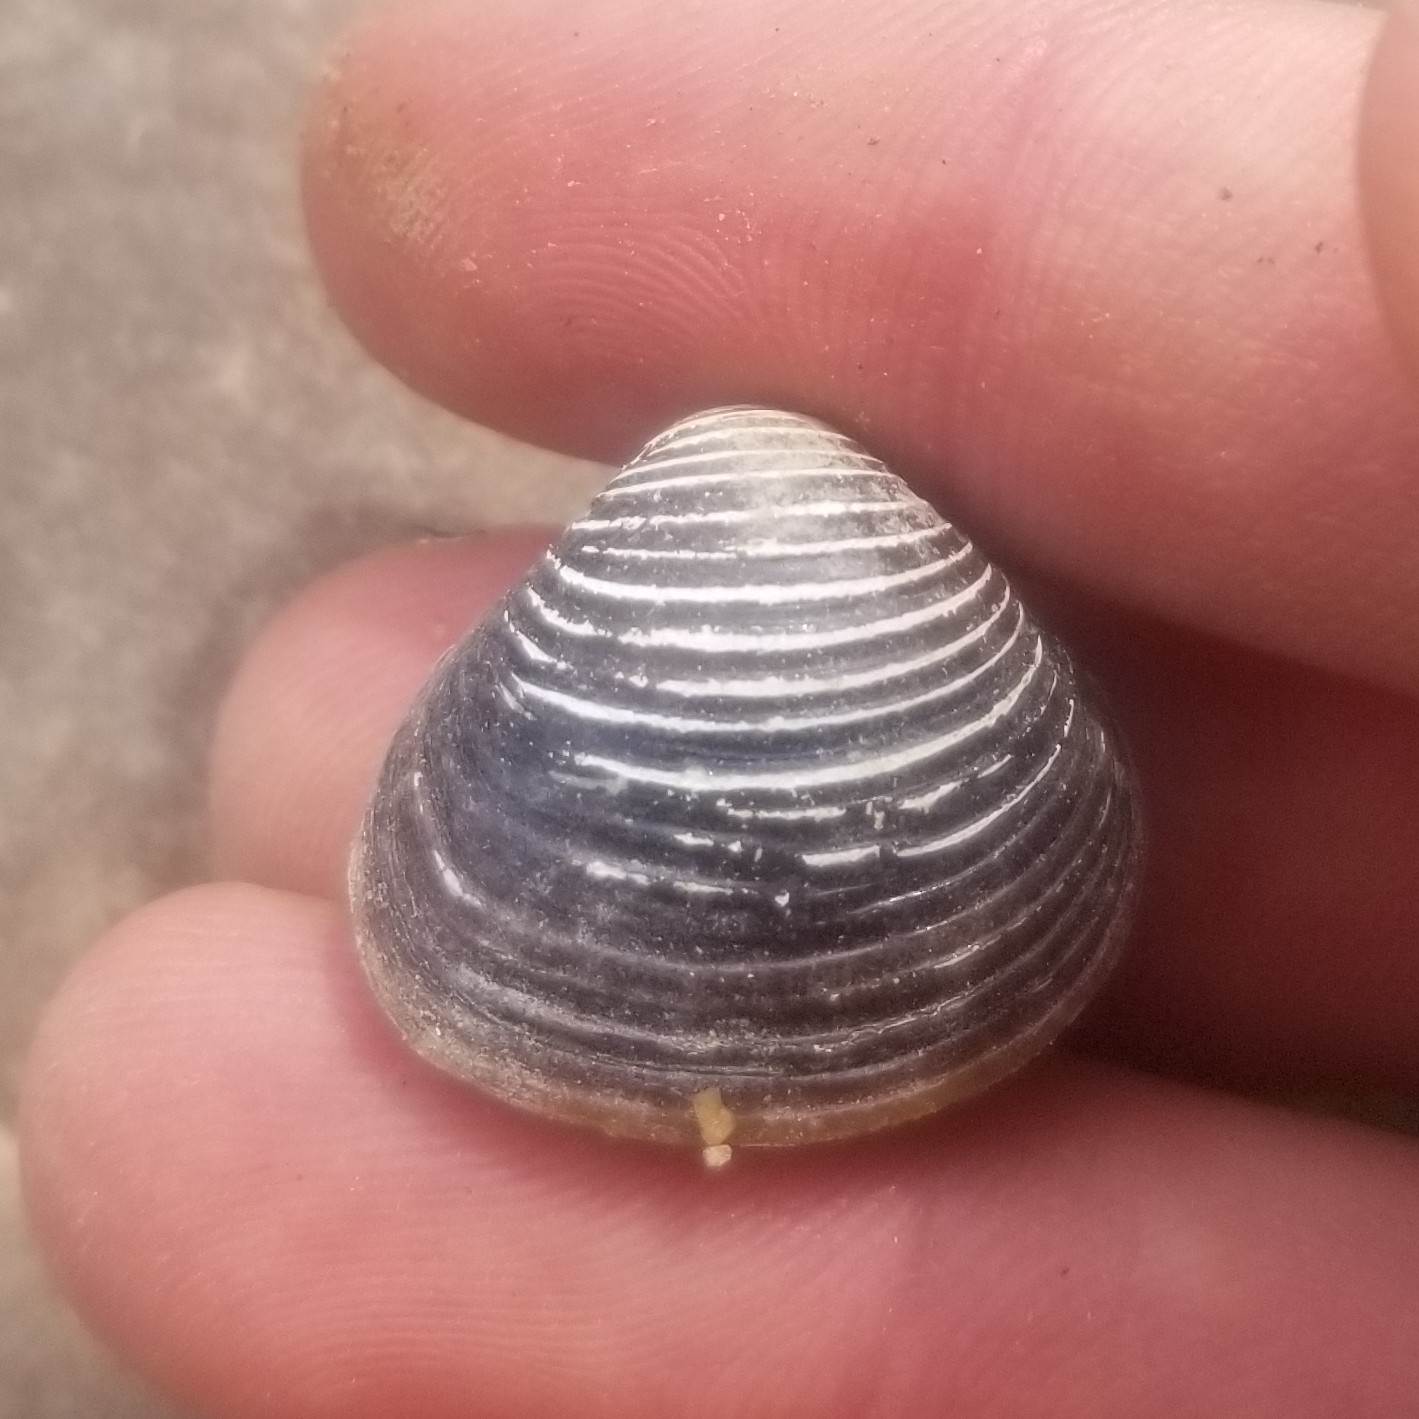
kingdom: Animalia
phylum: Mollusca
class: Bivalvia
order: Venerida
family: Cyrenidae
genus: Corbicula
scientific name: Corbicula fluminea
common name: Asian clam
